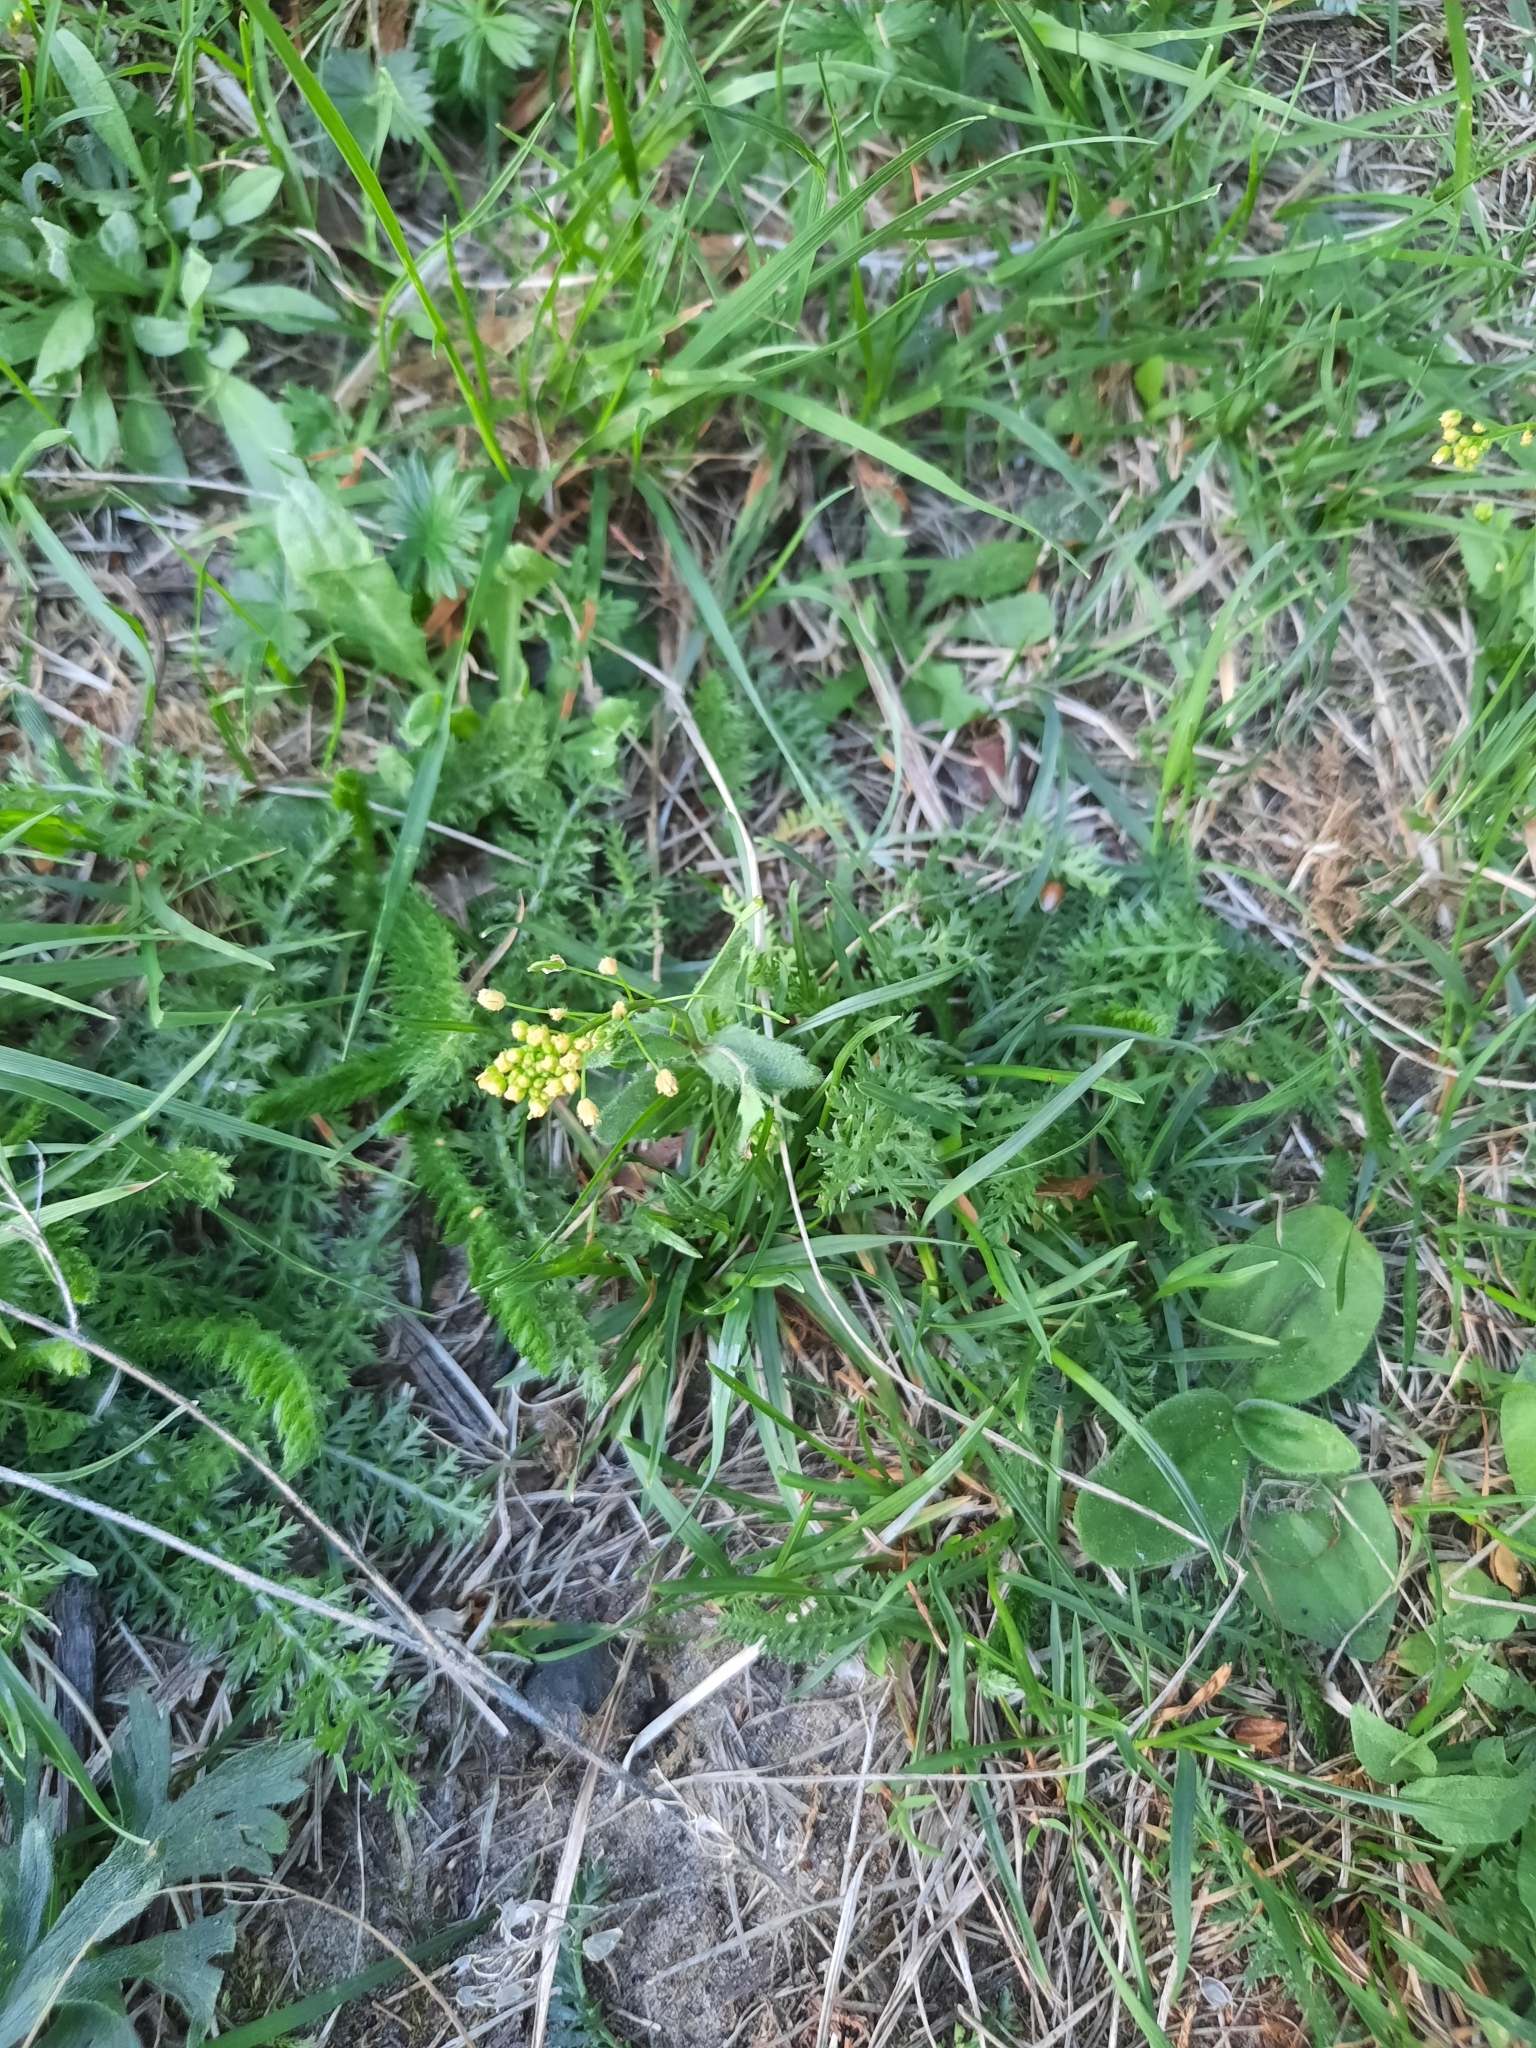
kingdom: Plantae
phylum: Tracheophyta
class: Magnoliopsida
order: Brassicales
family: Brassicaceae
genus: Draba
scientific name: Draba nemorosa
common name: Wood whitlow-grass
